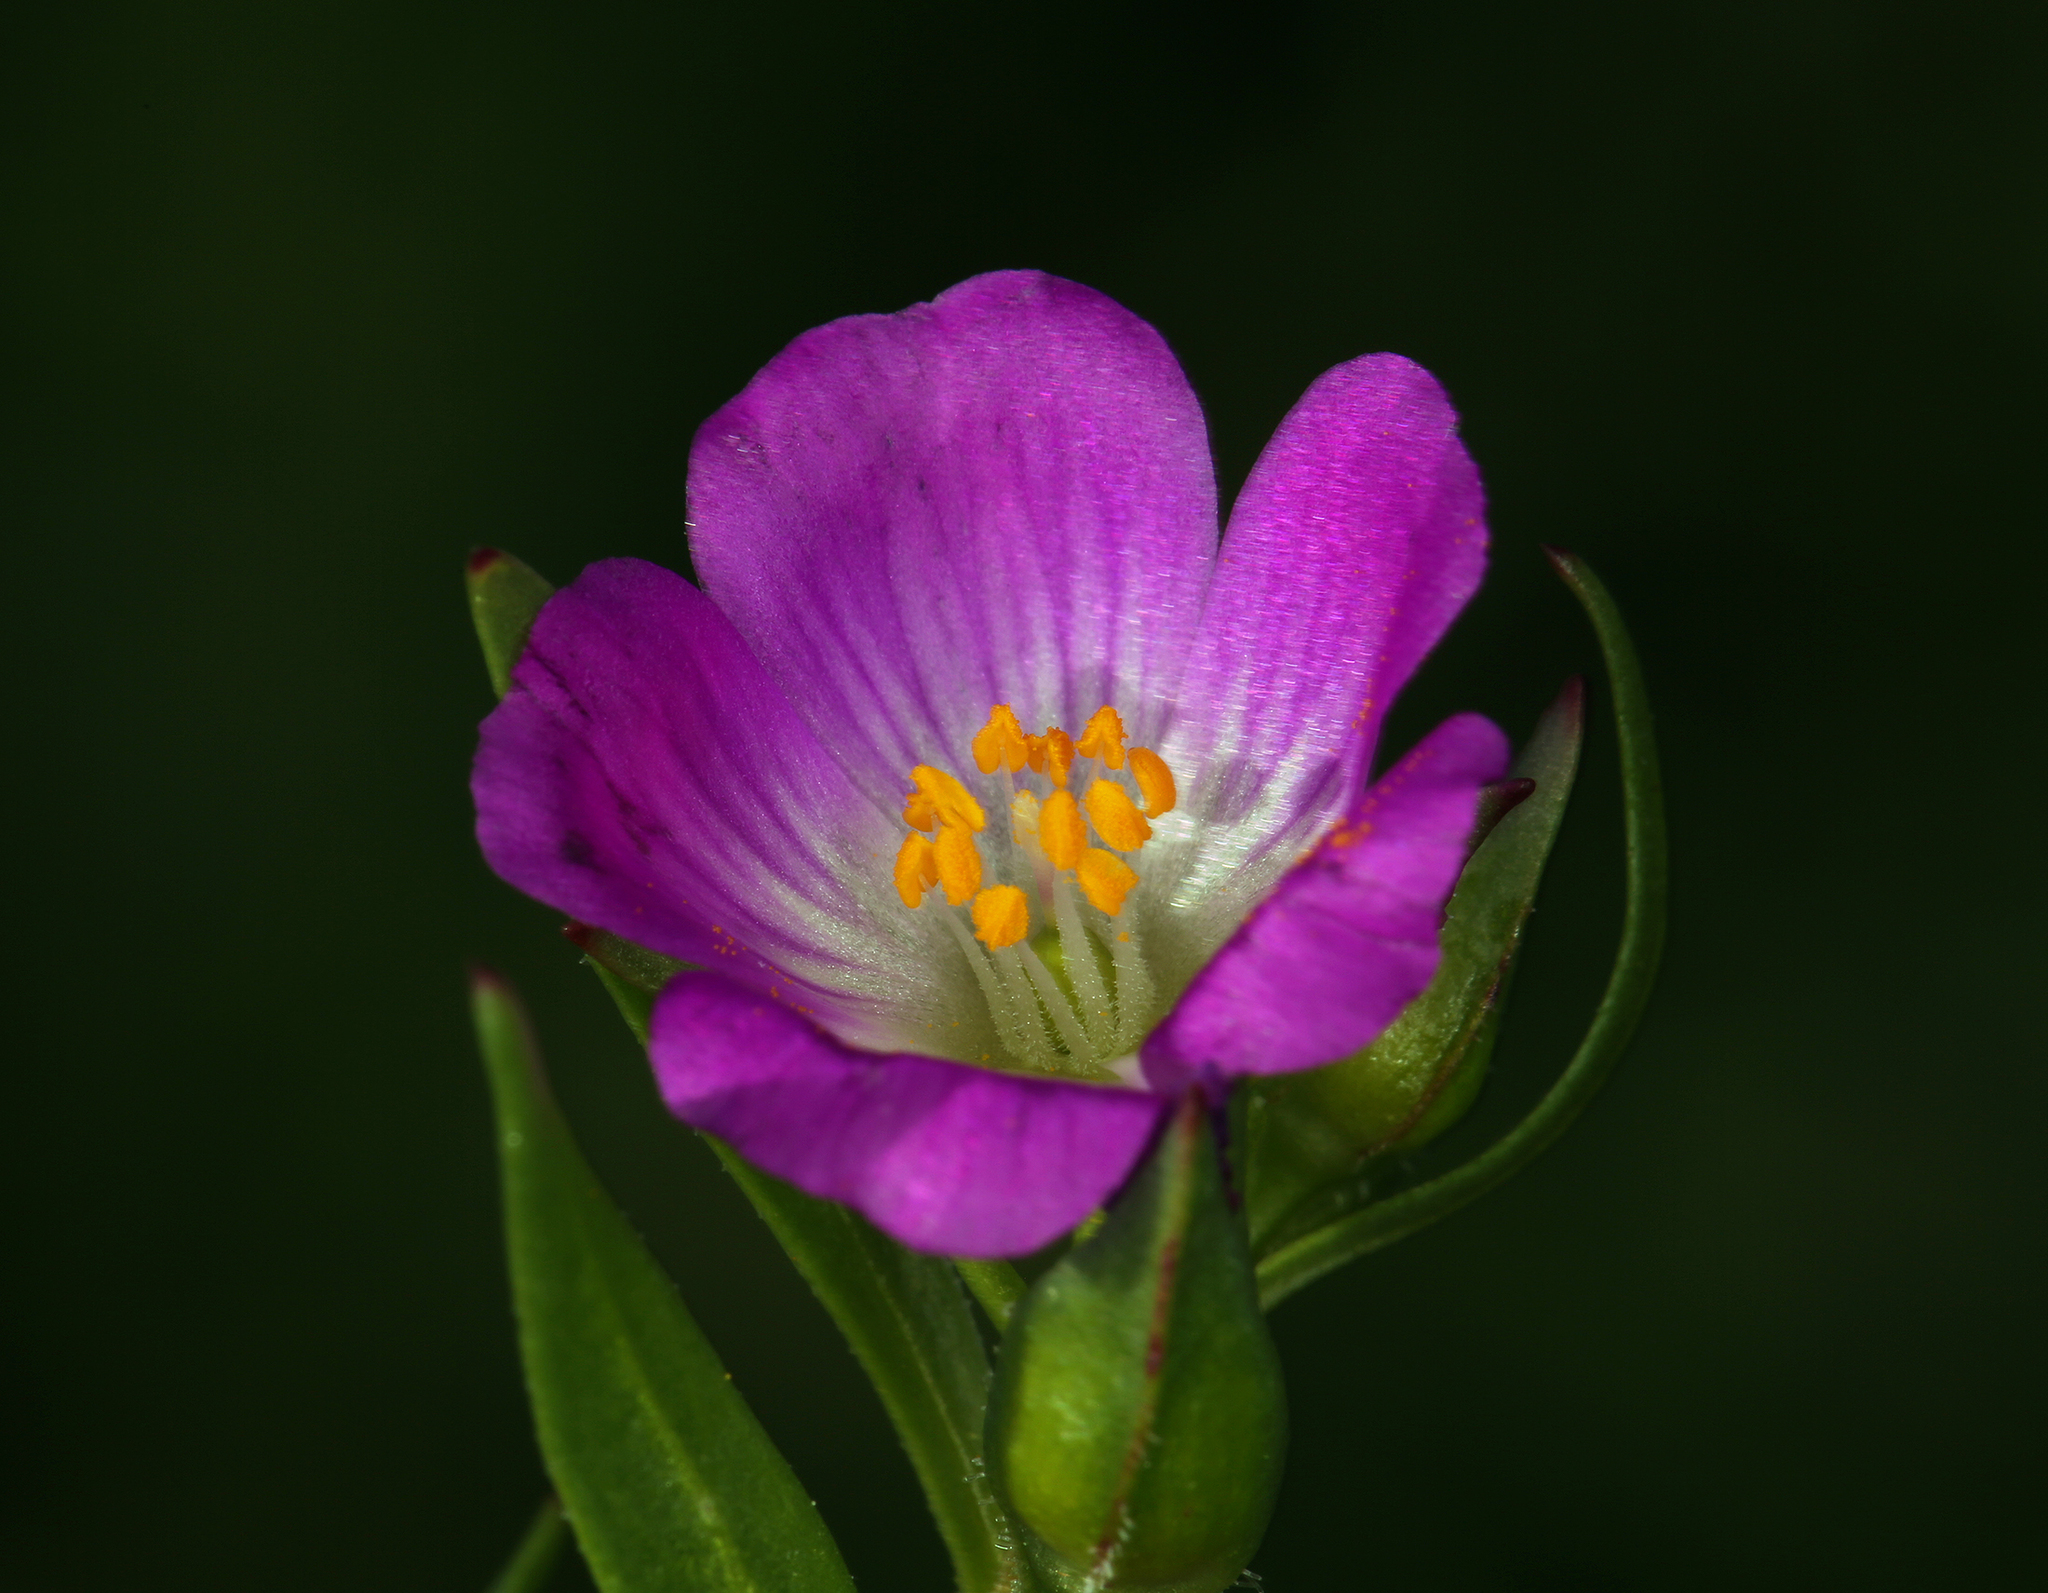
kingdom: Plantae
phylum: Tracheophyta
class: Magnoliopsida
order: Caryophyllales
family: Montiaceae
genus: Calandrinia
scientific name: Calandrinia menziesii
